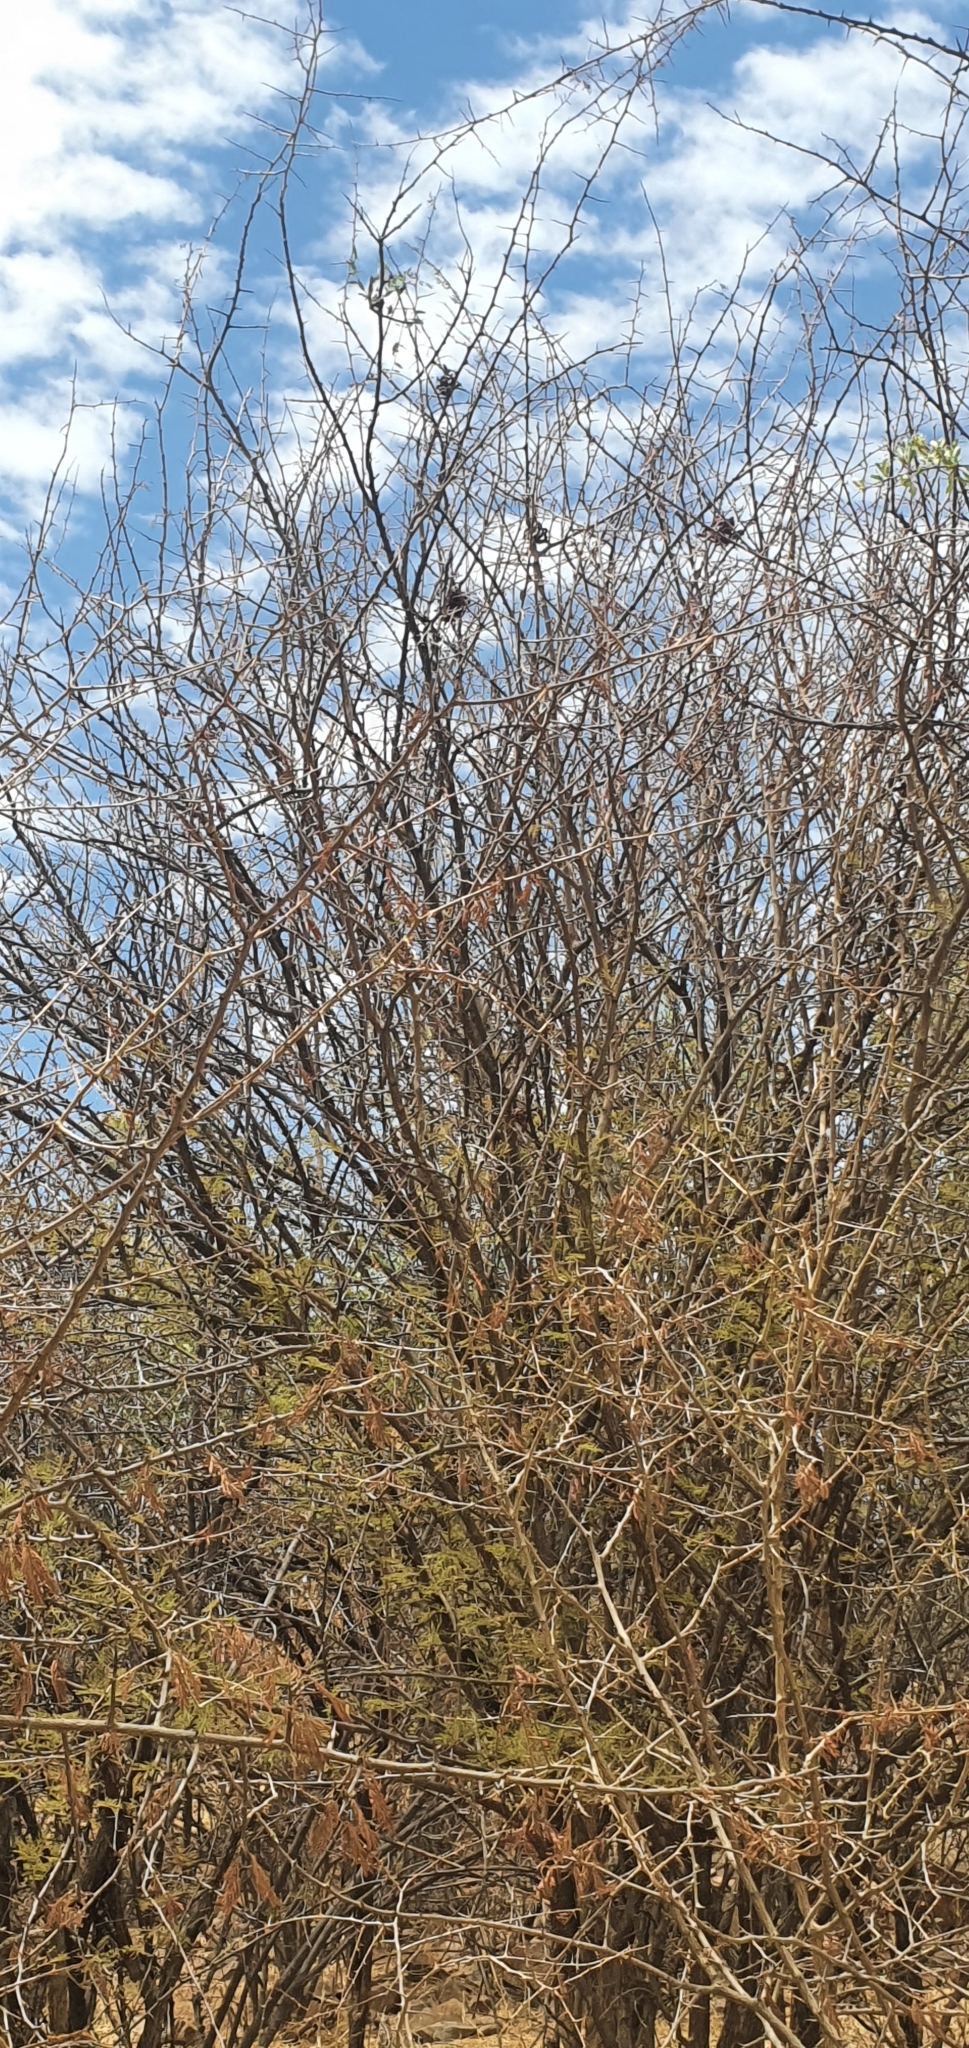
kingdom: Plantae
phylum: Tracheophyta
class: Magnoliopsida
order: Fabales
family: Fabaceae
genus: Dichrostachys
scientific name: Dichrostachys cinerea
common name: Sicklebush
